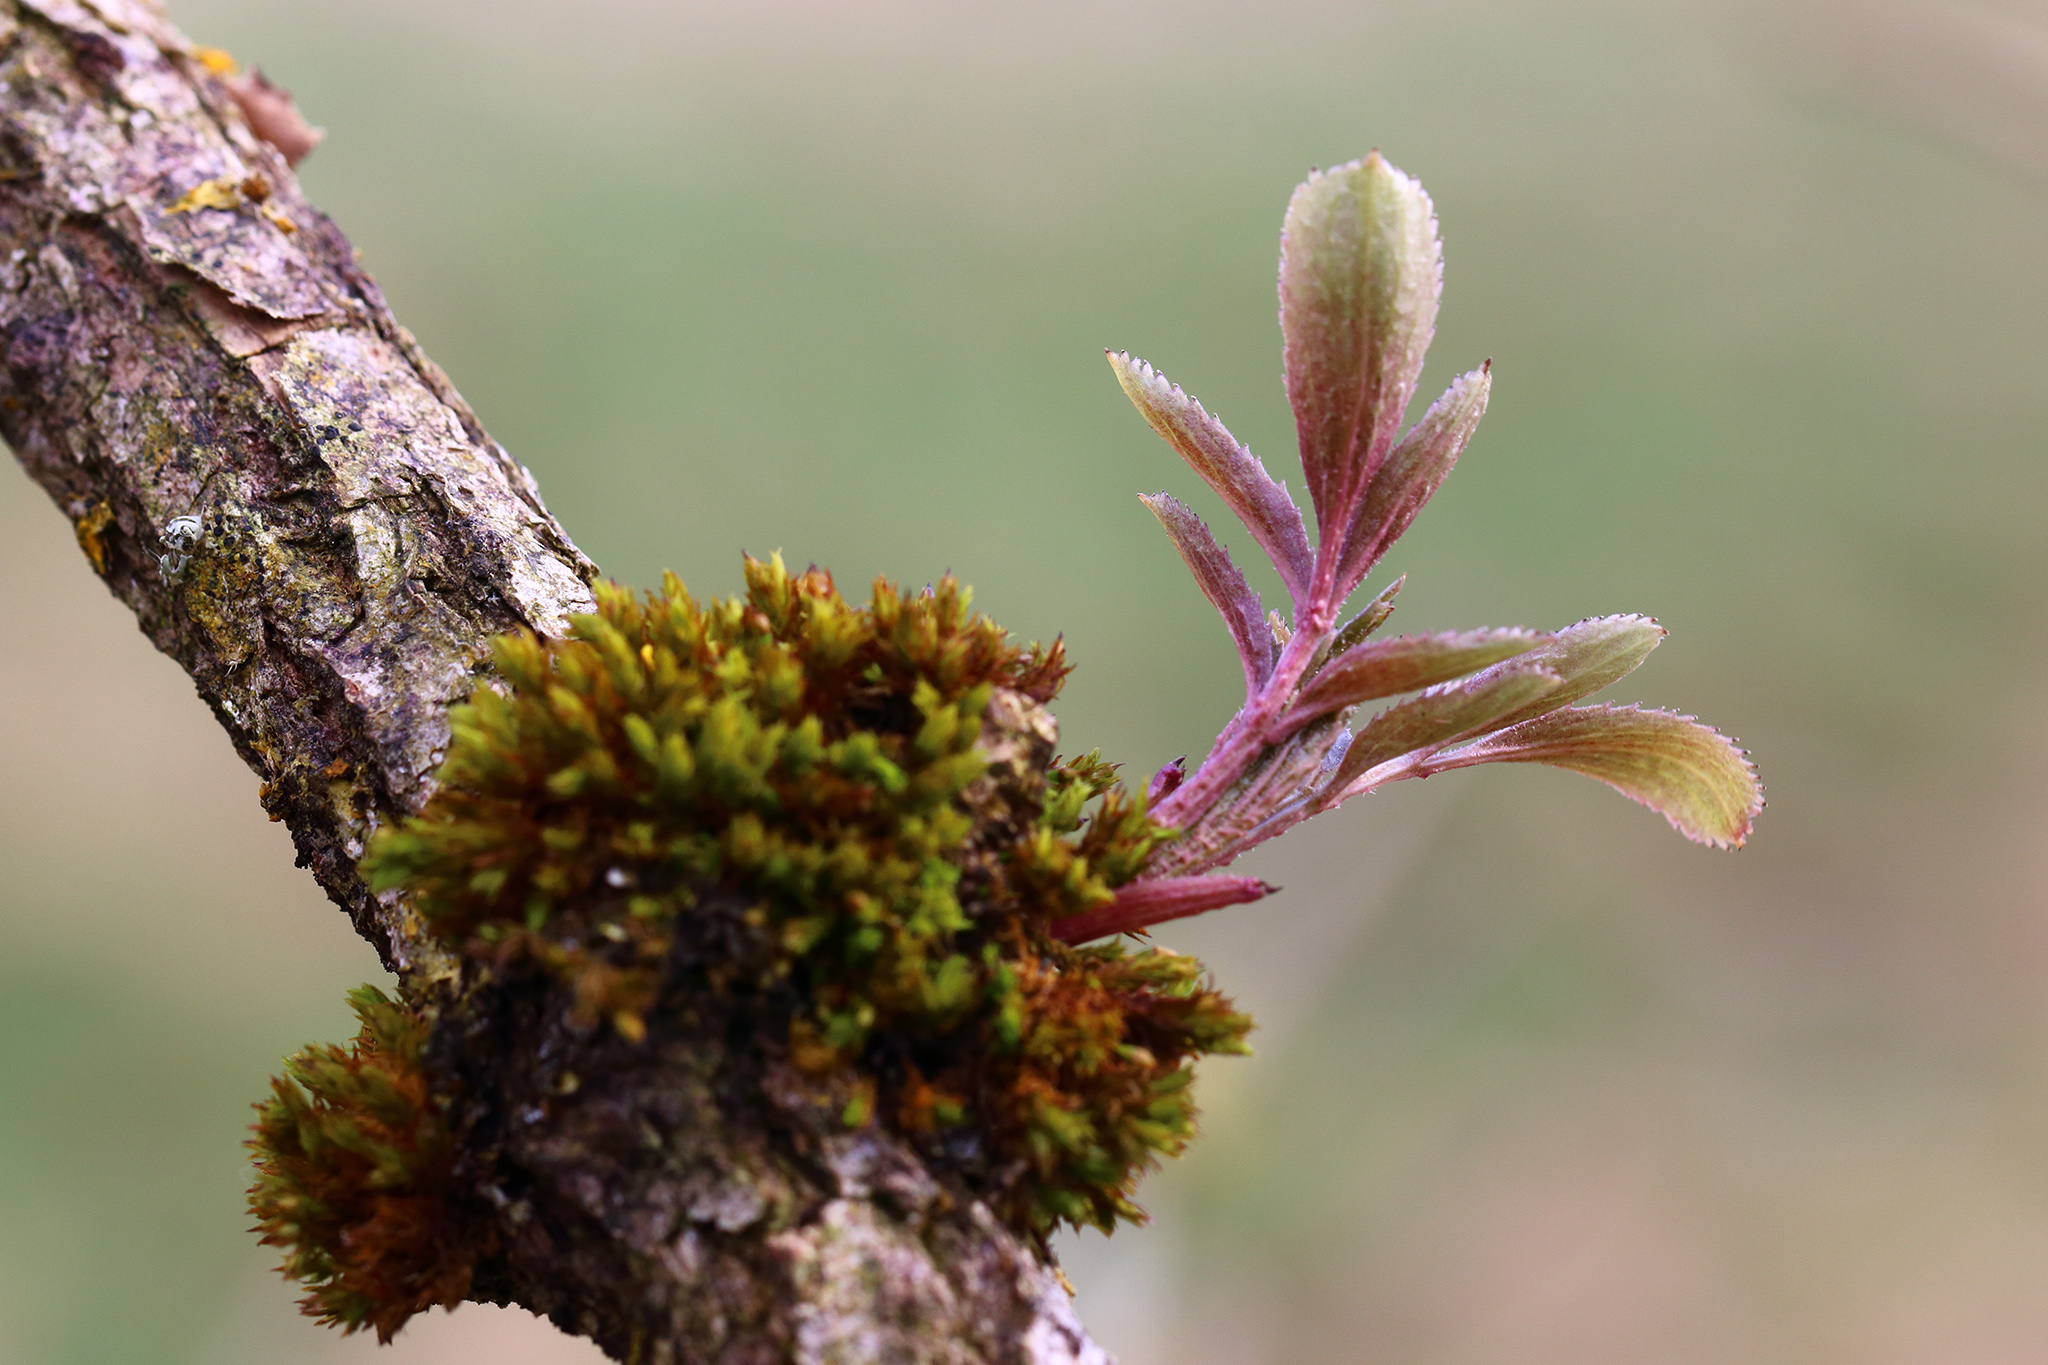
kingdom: Plantae
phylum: Tracheophyta
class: Magnoliopsida
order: Dipsacales
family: Viburnaceae
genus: Sambucus
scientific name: Sambucus nigra
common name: Elder
